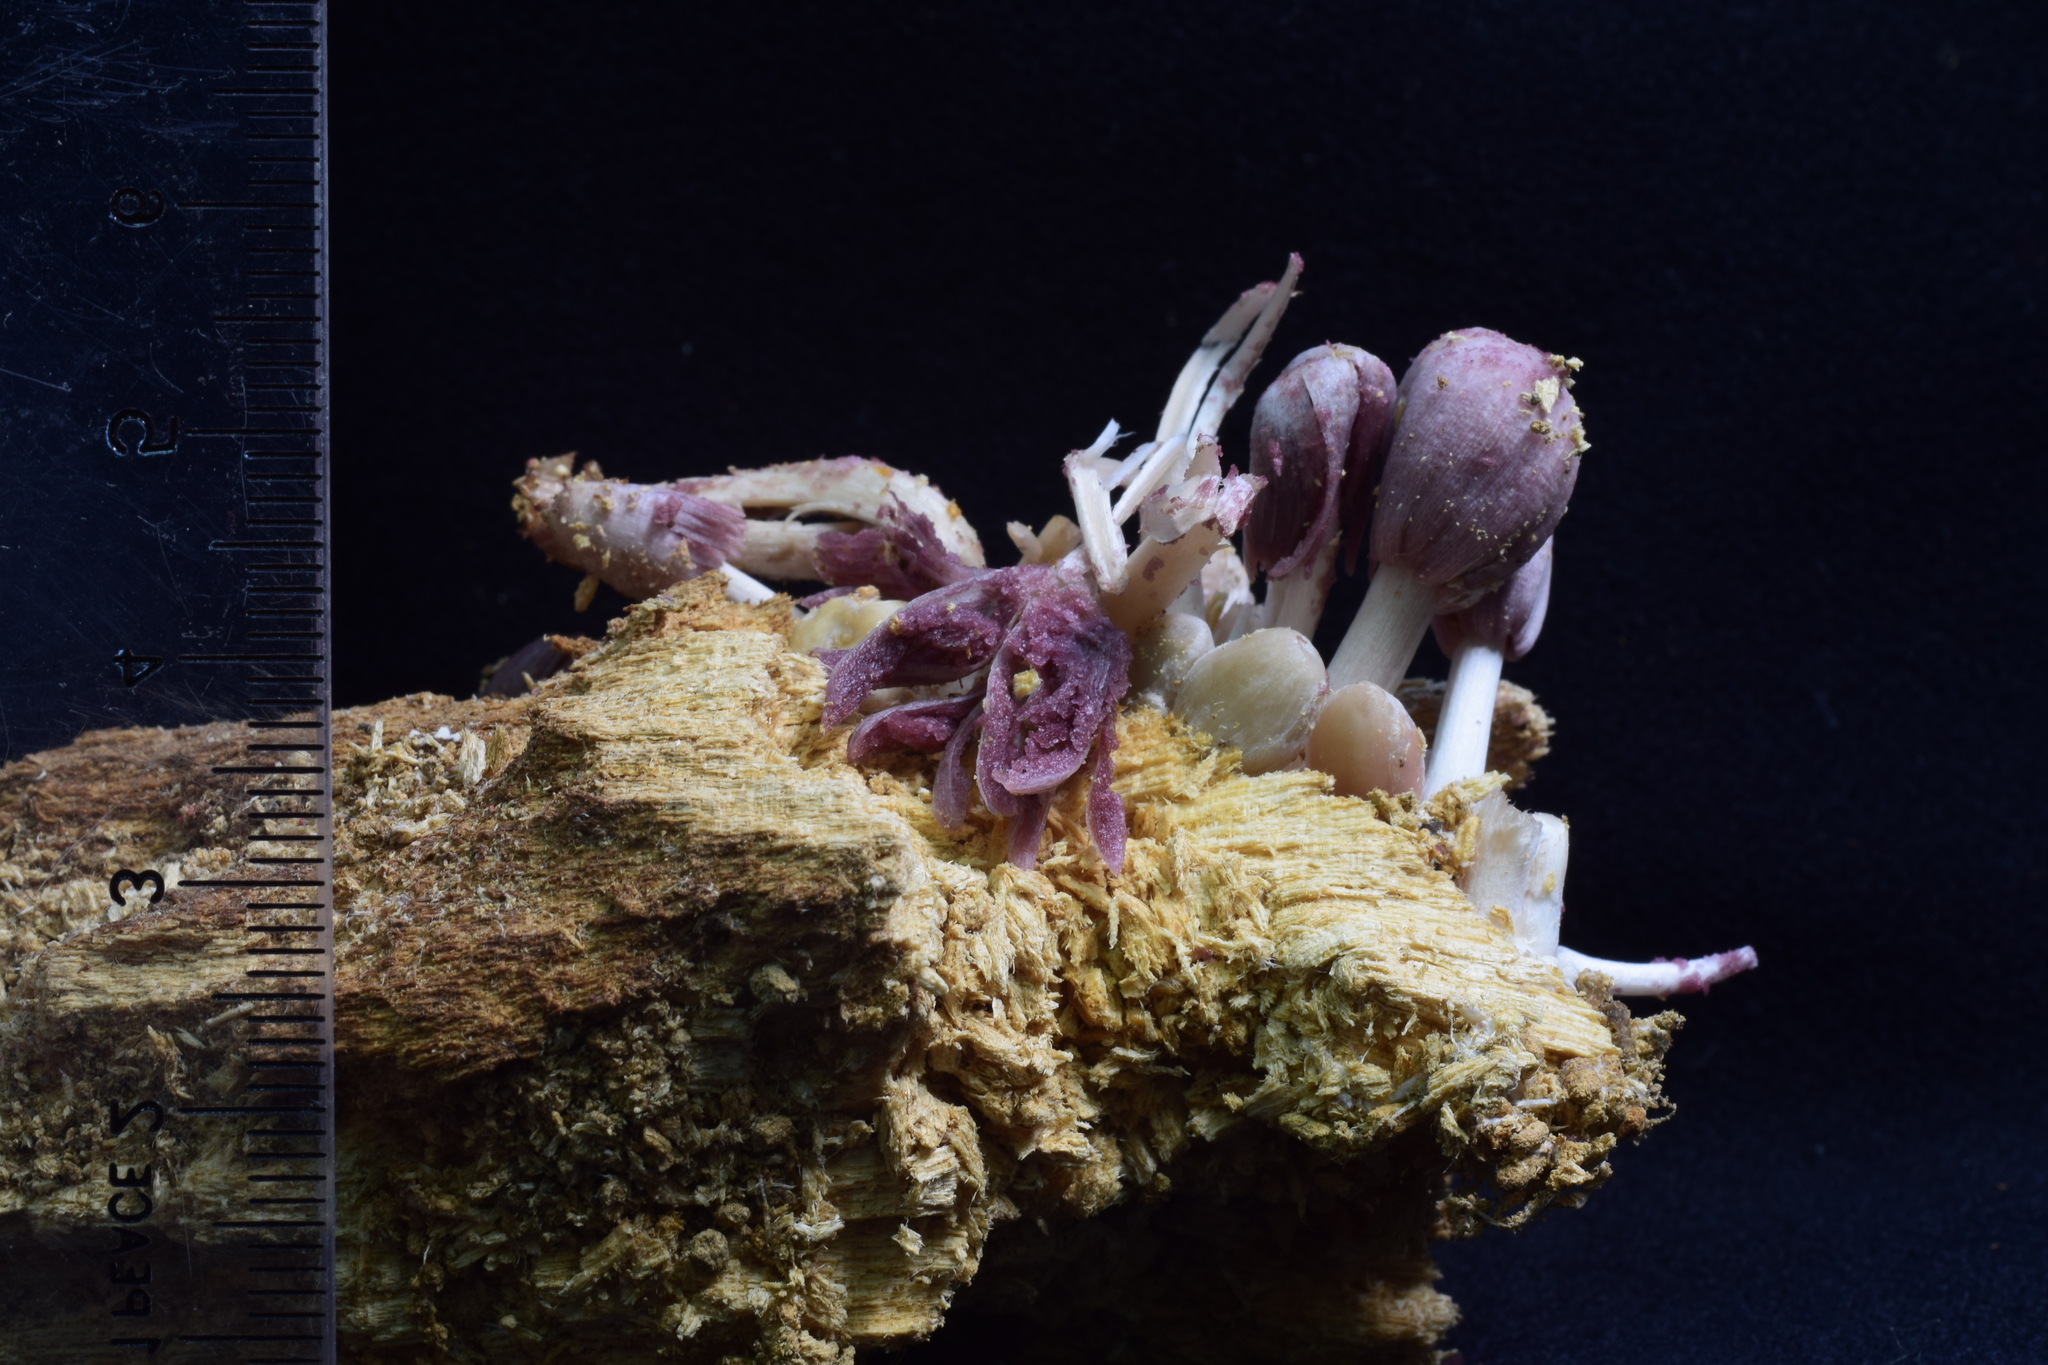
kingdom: Fungi
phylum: Basidiomycota
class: Agaricomycetes
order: Agaricales
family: Psathyrellaceae
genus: Coprinopsis
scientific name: Coprinopsis clastophylla
